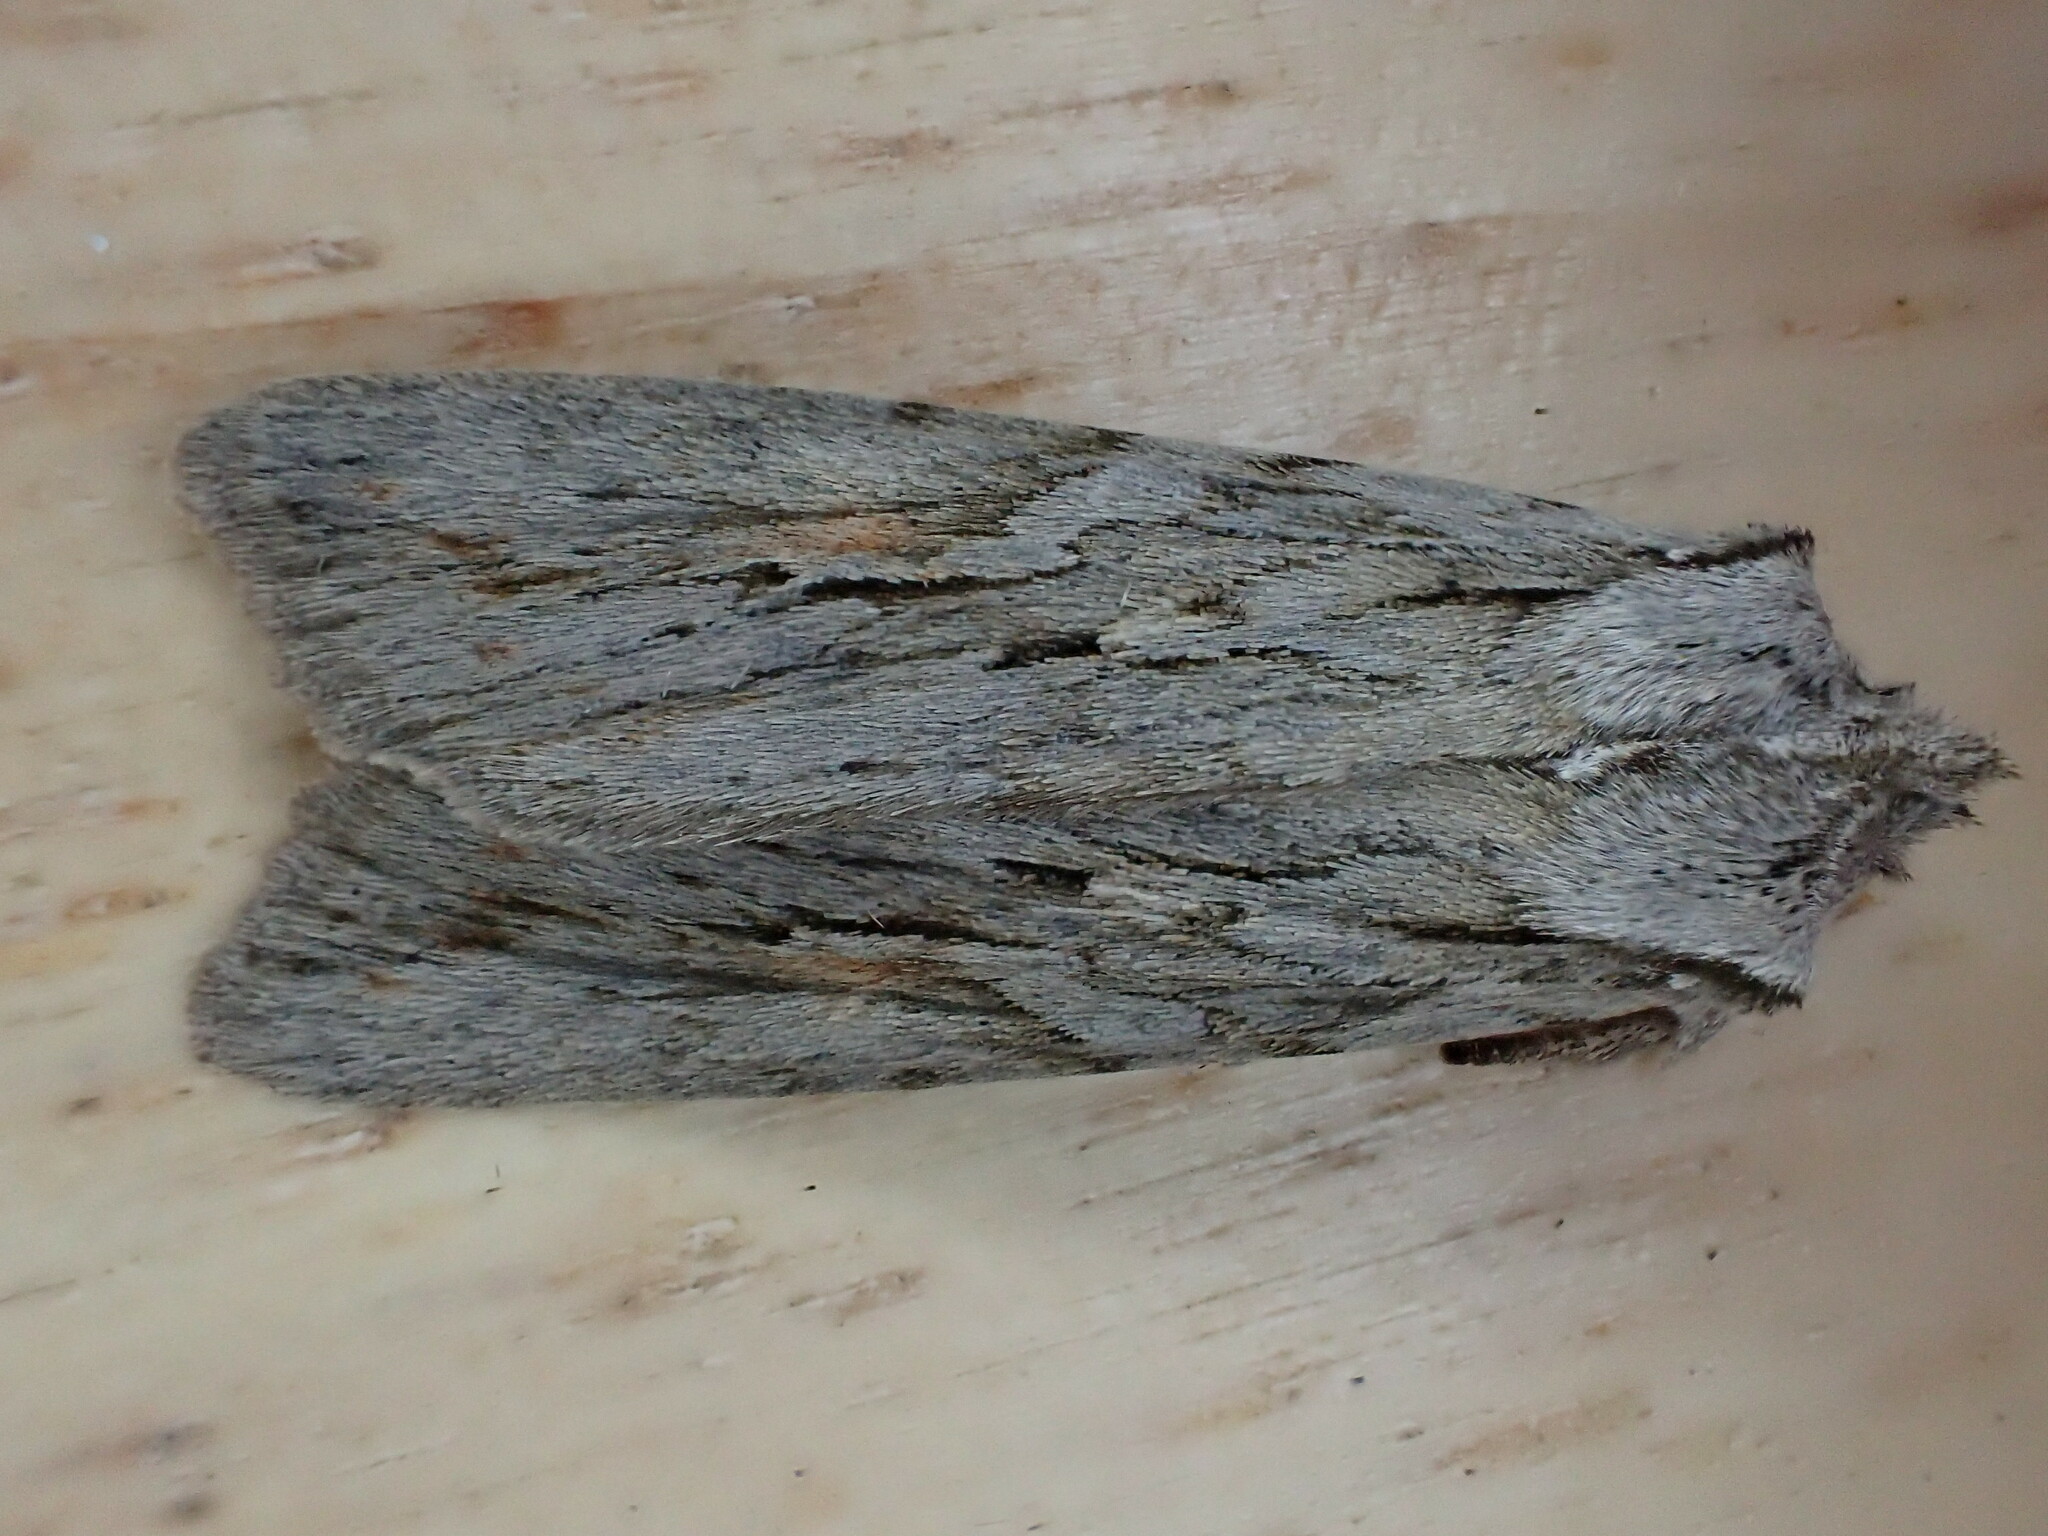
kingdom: Animalia
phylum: Arthropoda
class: Insecta
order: Lepidoptera
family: Noctuidae
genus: Lithophane
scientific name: Lithophane leautieri
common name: Blair's shoulder-knot
